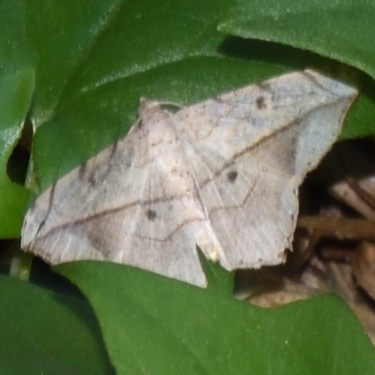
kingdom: Animalia
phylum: Arthropoda
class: Insecta
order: Lepidoptera
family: Geometridae
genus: Chiasmia
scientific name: Chiasmia simplicilinea
